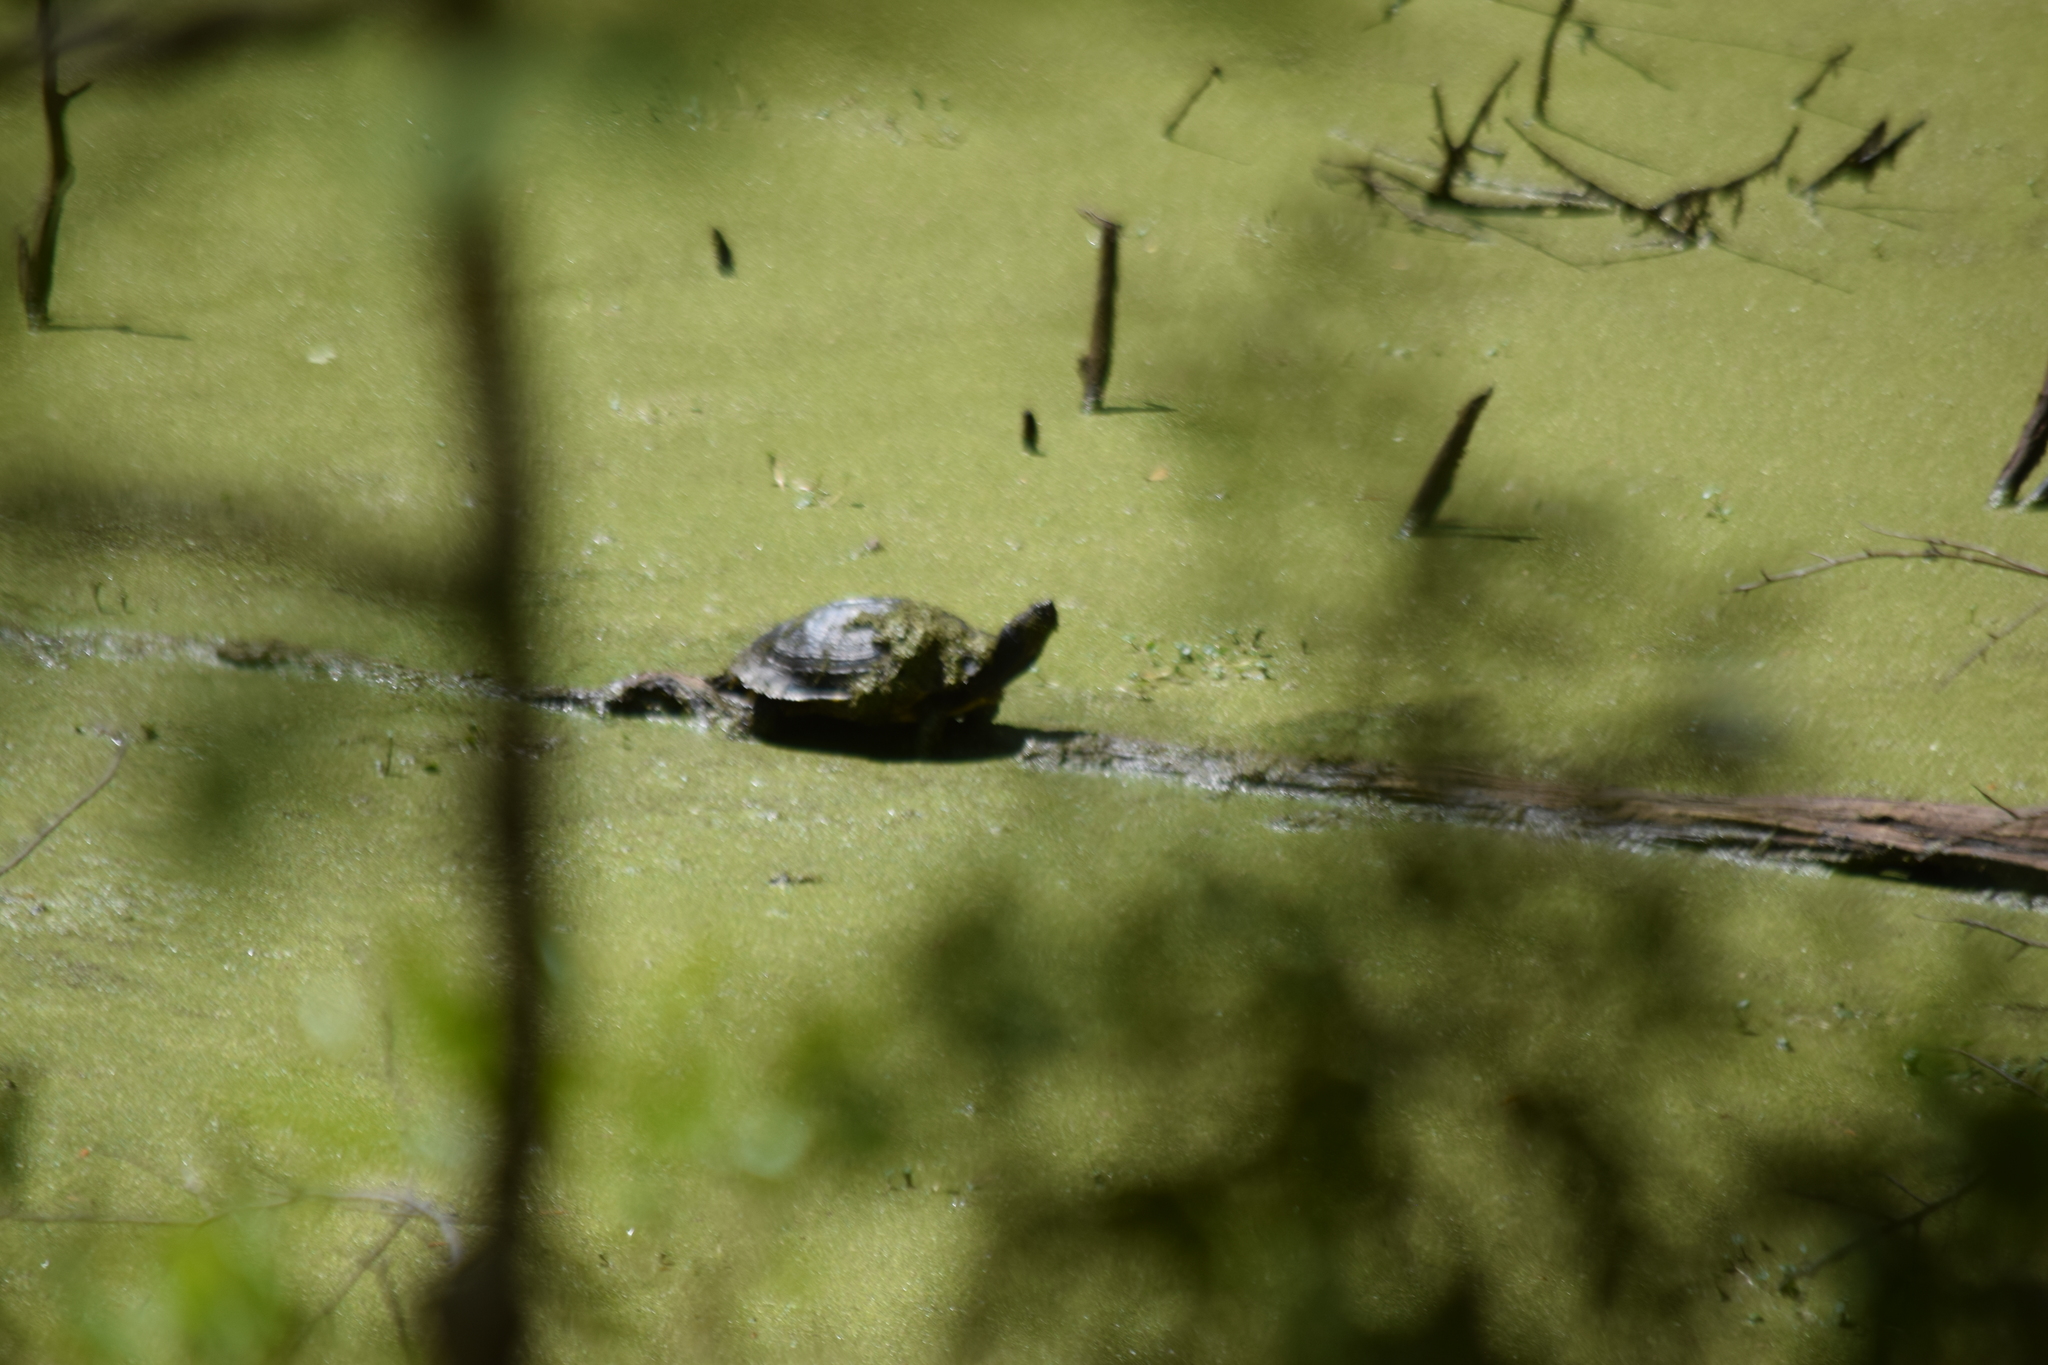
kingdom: Animalia
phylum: Chordata
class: Testudines
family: Emydidae
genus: Trachemys
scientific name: Trachemys scripta
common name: Slider
